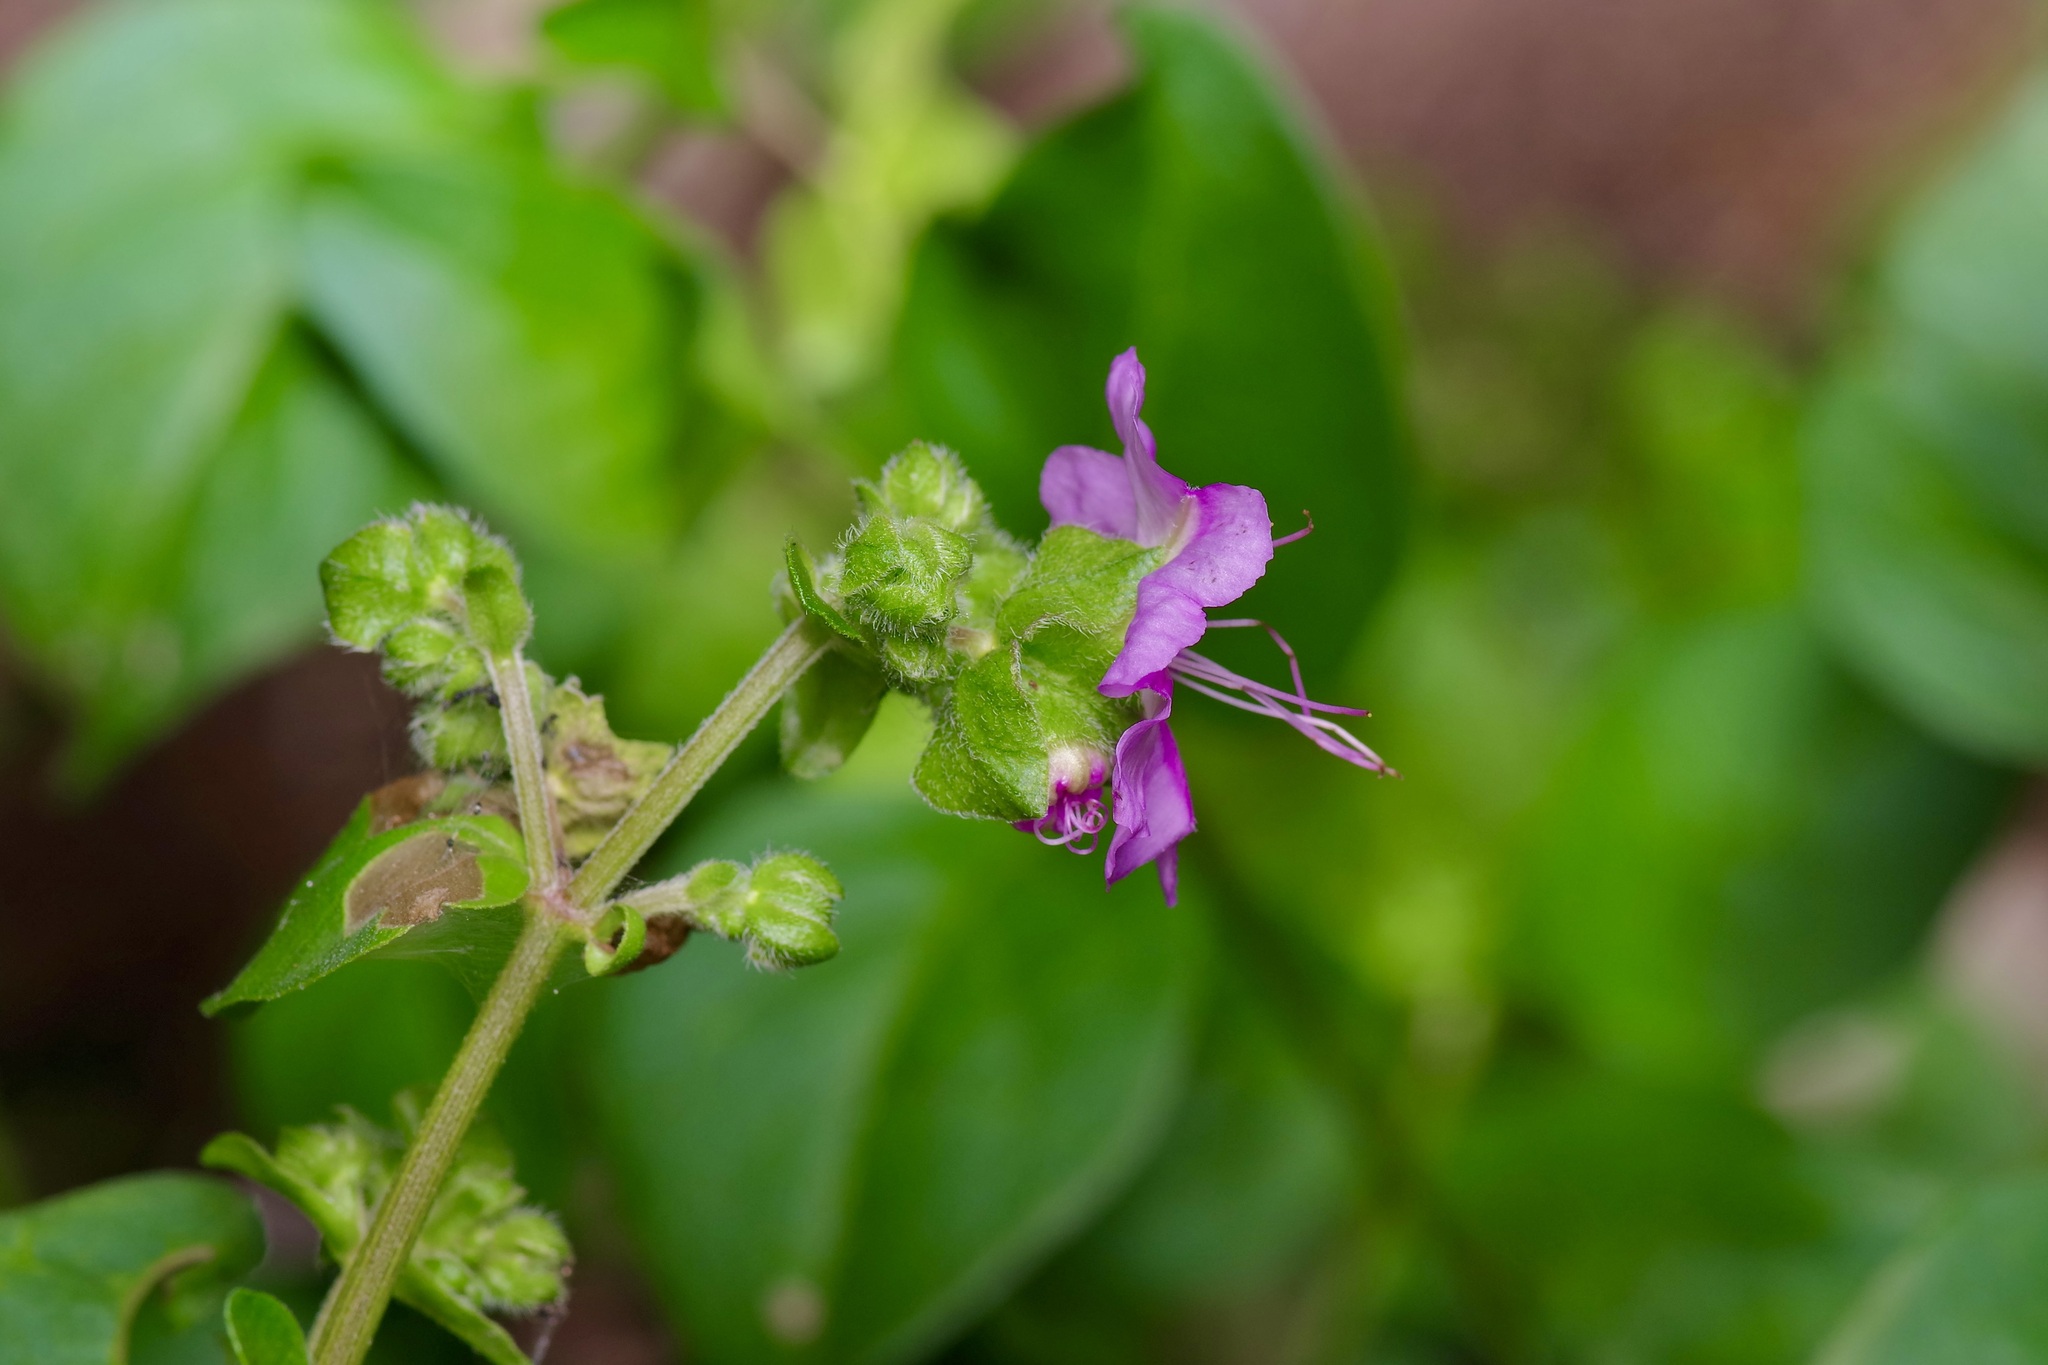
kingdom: Plantae
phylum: Tracheophyta
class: Magnoliopsida
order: Caryophyllales
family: Nyctaginaceae
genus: Mirabilis
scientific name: Mirabilis nyctaginea
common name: Umbrella wort
